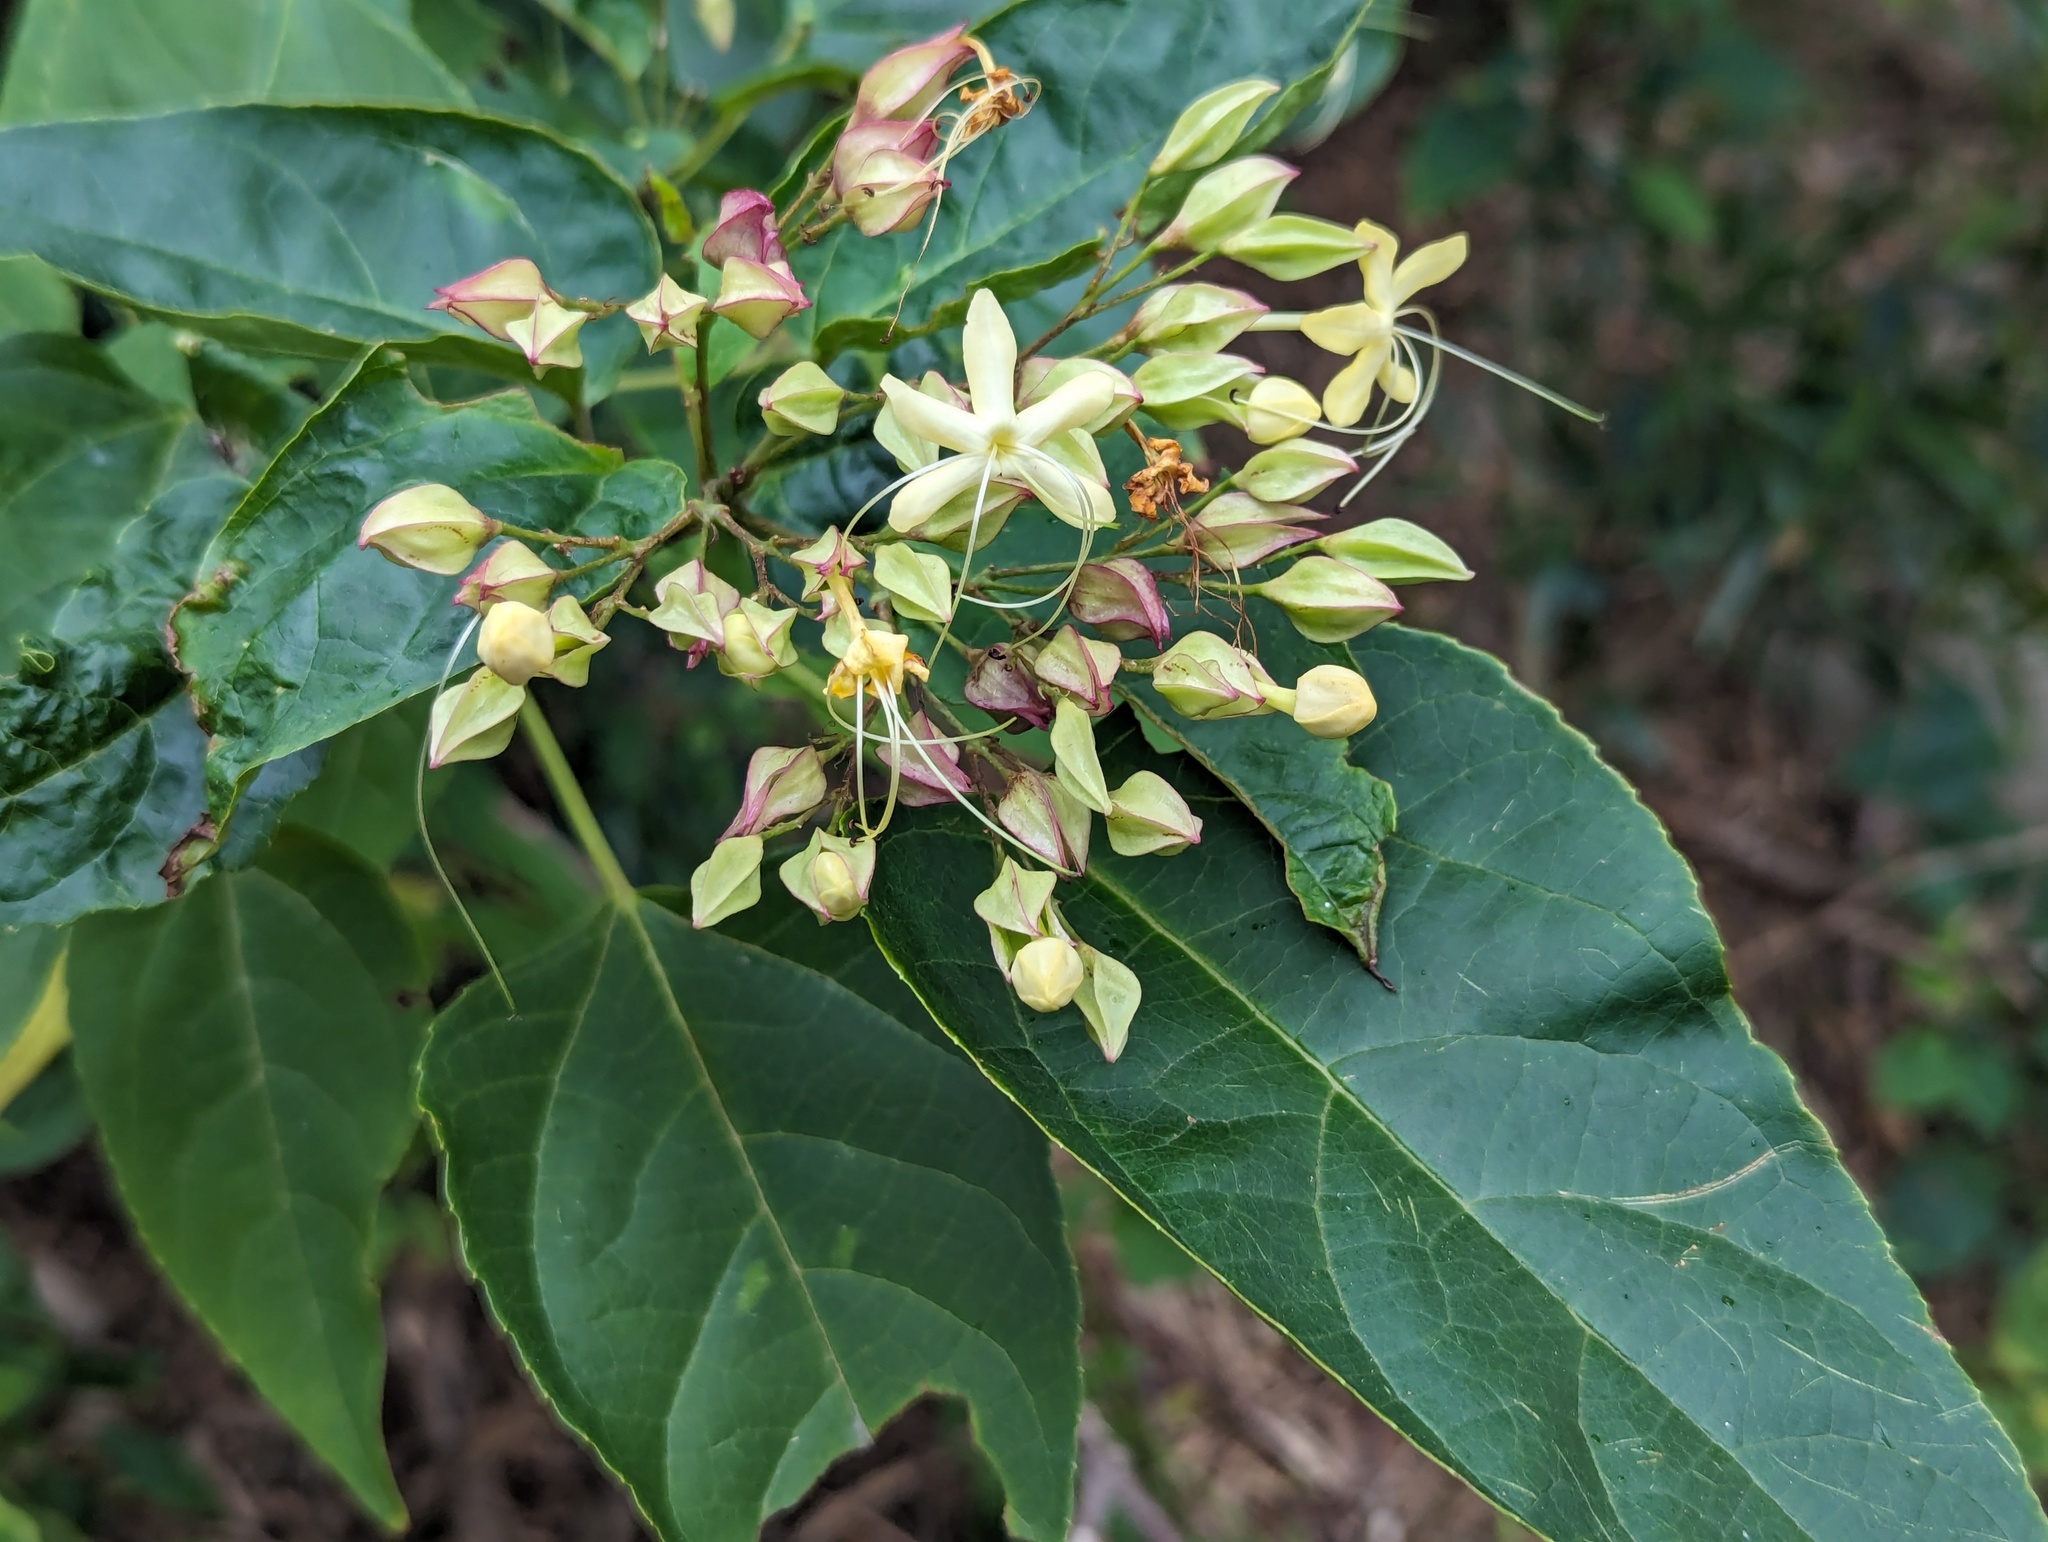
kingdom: Plantae
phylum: Tracheophyta
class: Magnoliopsida
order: Lamiales
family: Lamiaceae
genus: Clerodendrum
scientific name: Clerodendrum trichotomum
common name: Harlequin glorybower
